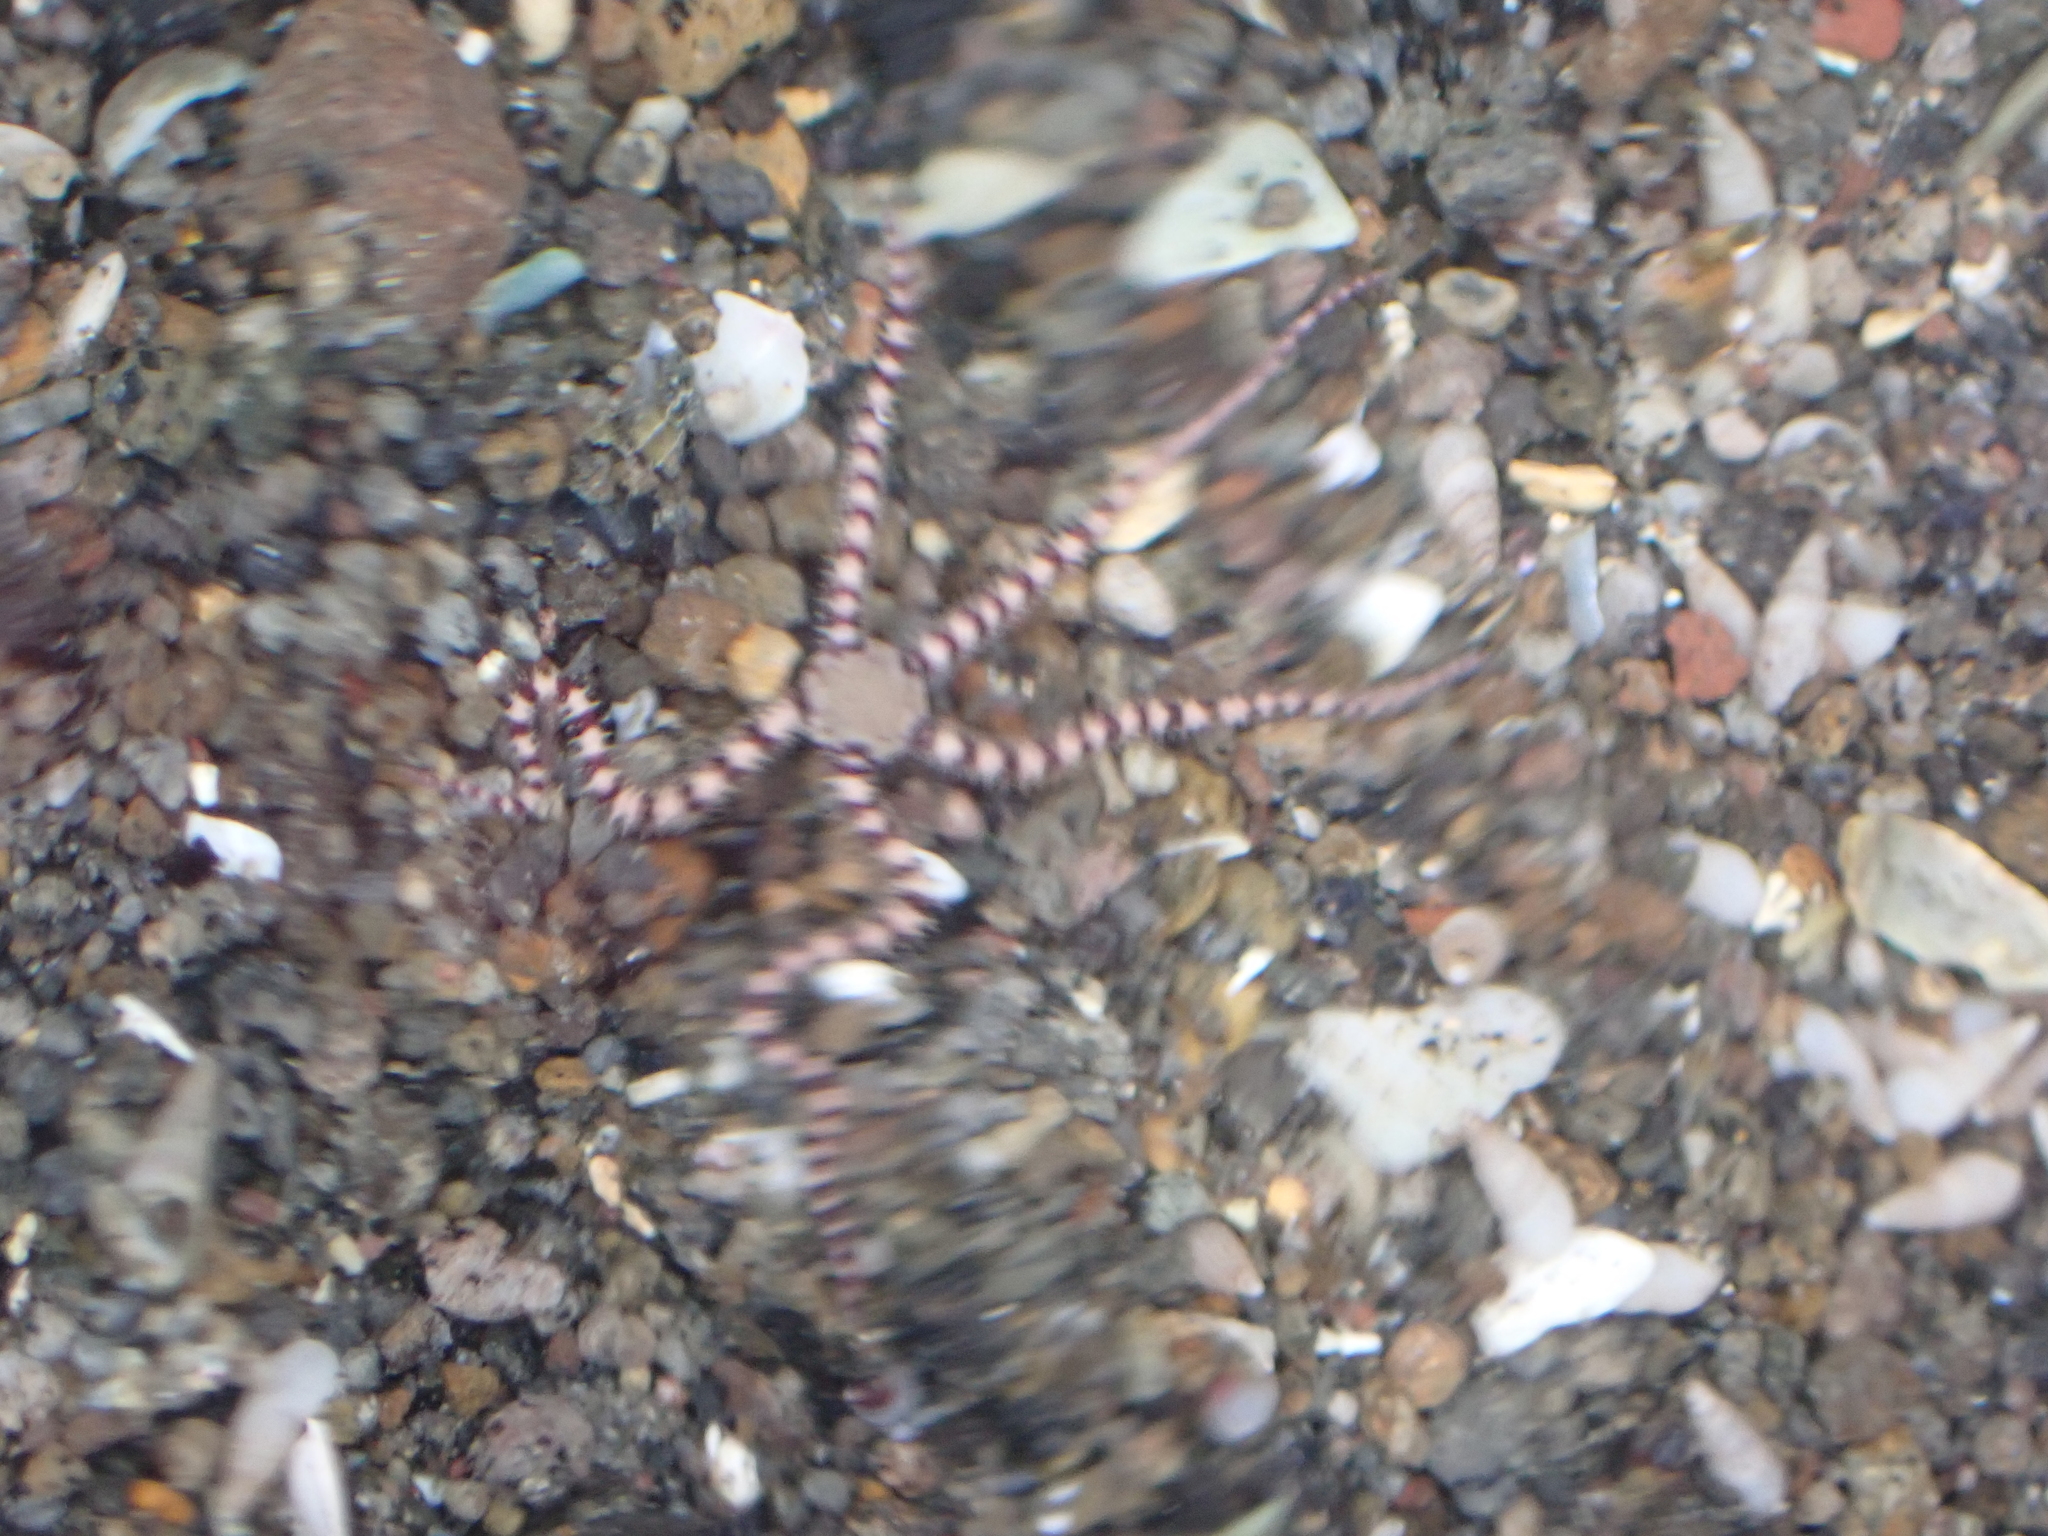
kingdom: Animalia
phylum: Echinodermata
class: Ophiuroidea
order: Amphilepidida
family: Ophionereididae
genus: Ophionereis
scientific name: Ophionereis fasciata
